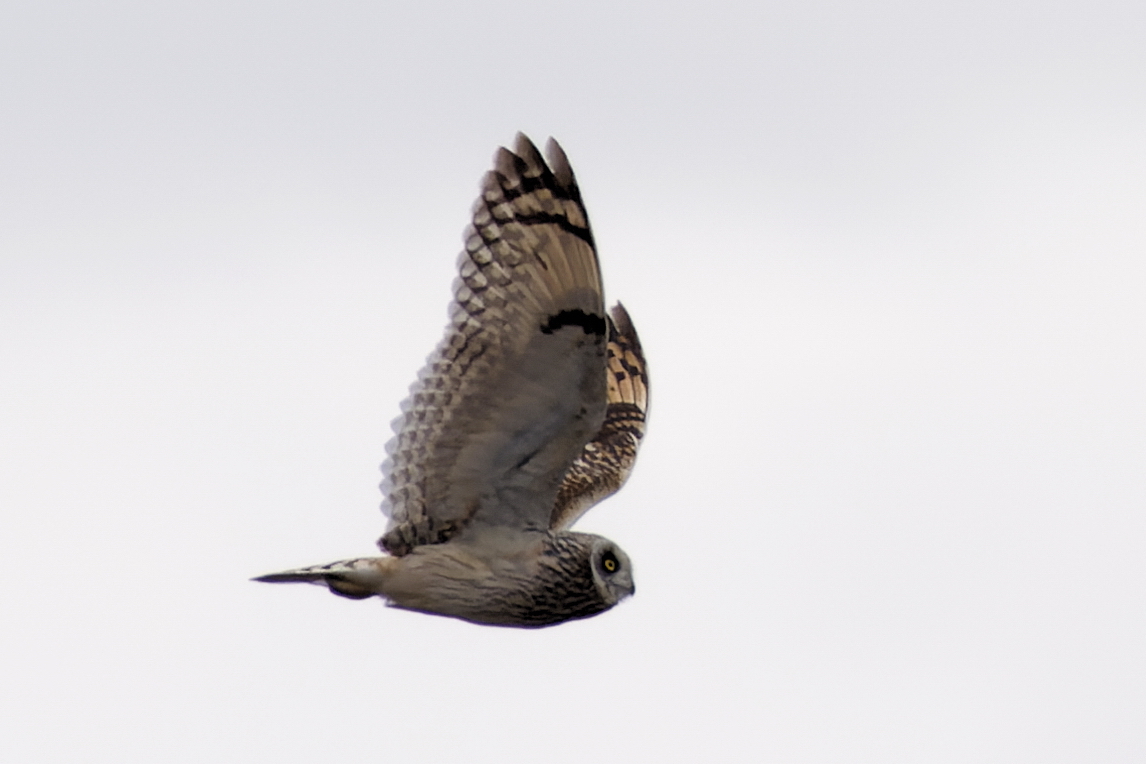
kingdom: Animalia
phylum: Chordata
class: Aves
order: Strigiformes
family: Strigidae
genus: Asio
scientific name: Asio flammeus
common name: Short-eared owl
